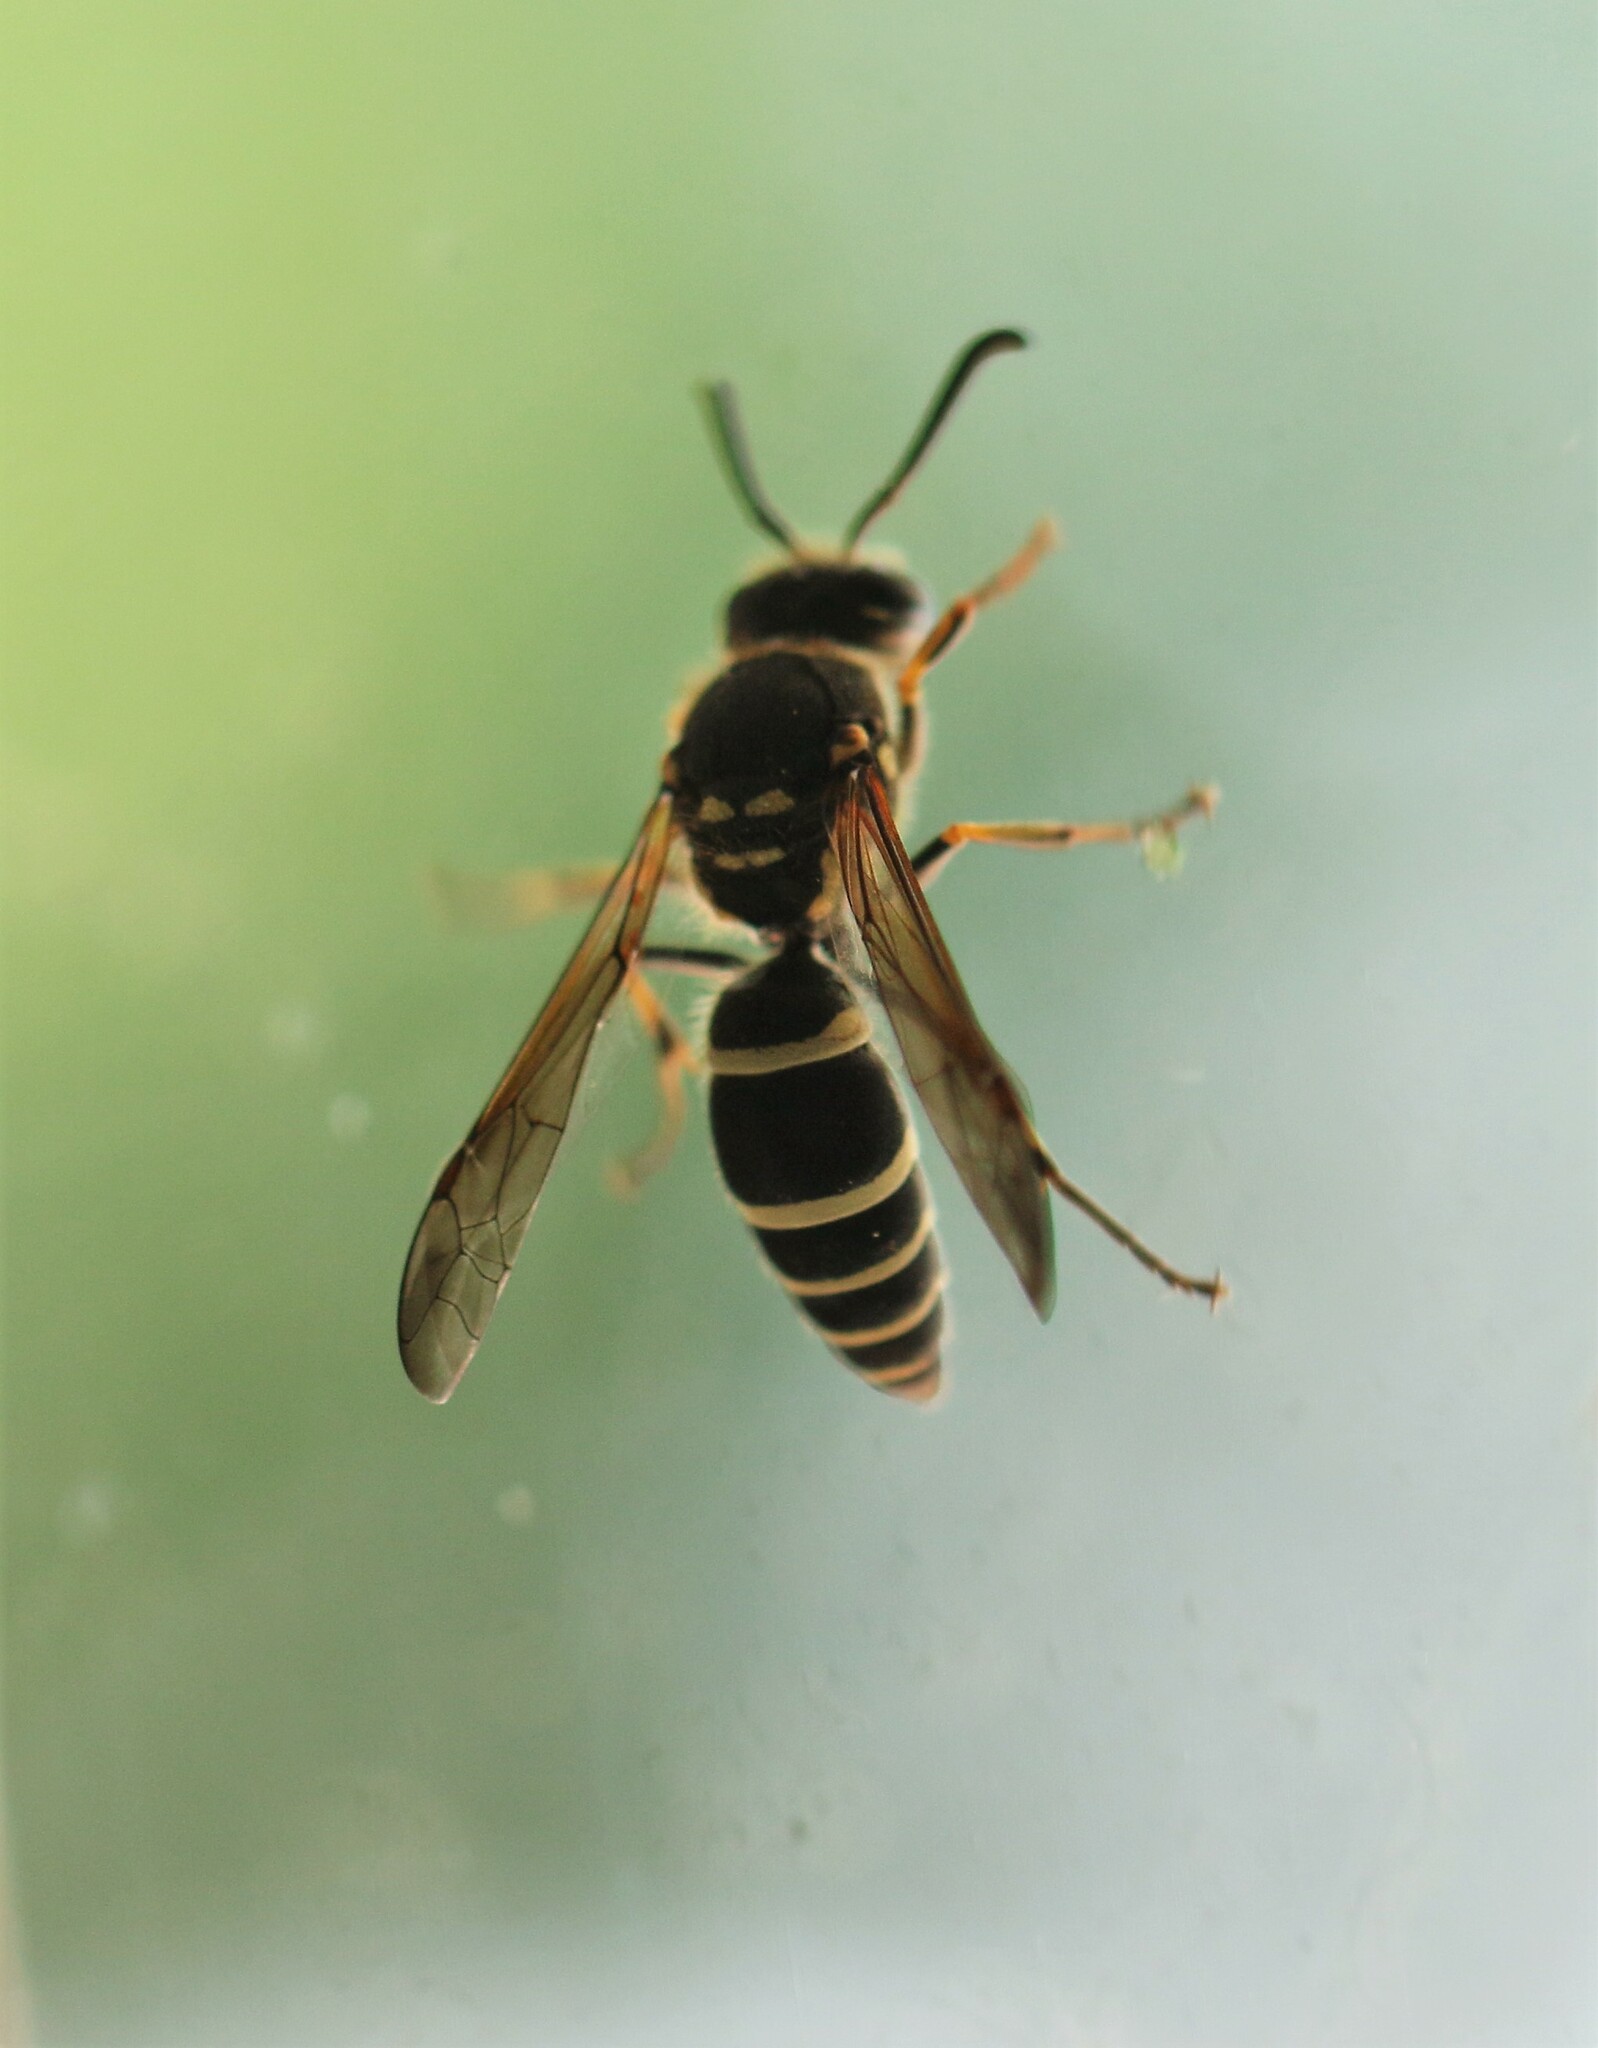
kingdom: Animalia
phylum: Arthropoda
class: Insecta
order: Hymenoptera
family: Vespidae
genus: Ancistrocerus
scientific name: Ancistrocerus catskill
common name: Vespid wasp
